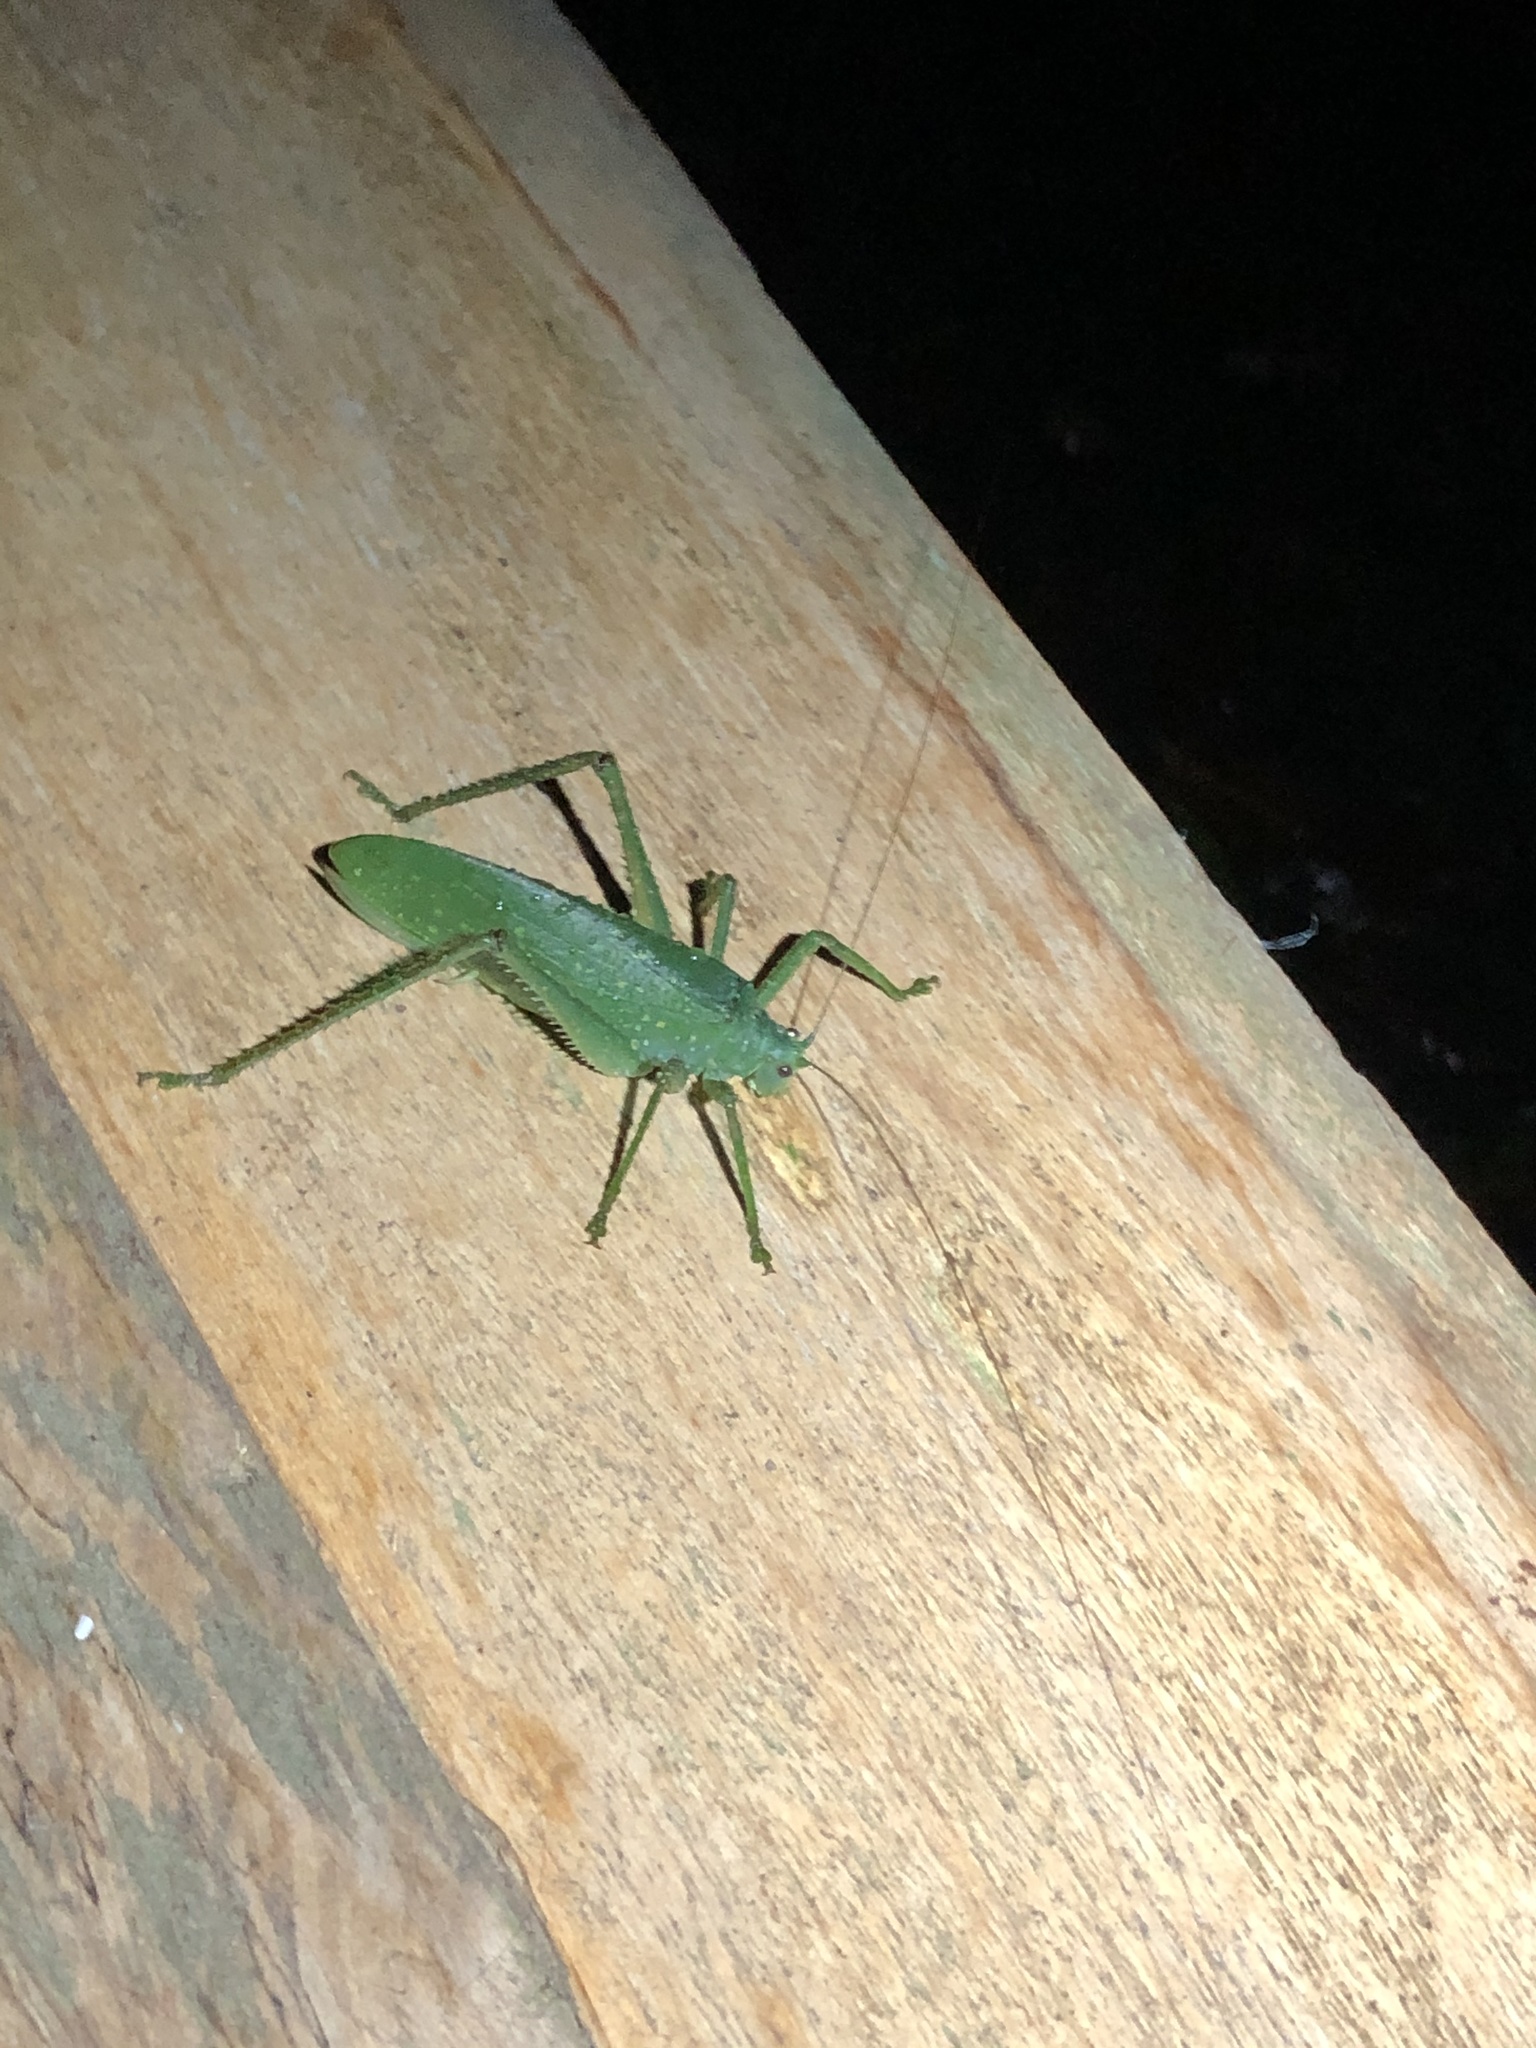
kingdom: Animalia
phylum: Arthropoda
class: Insecta
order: Orthoptera
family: Tettigoniidae
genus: Diophanes
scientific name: Diophanes salvifolius
